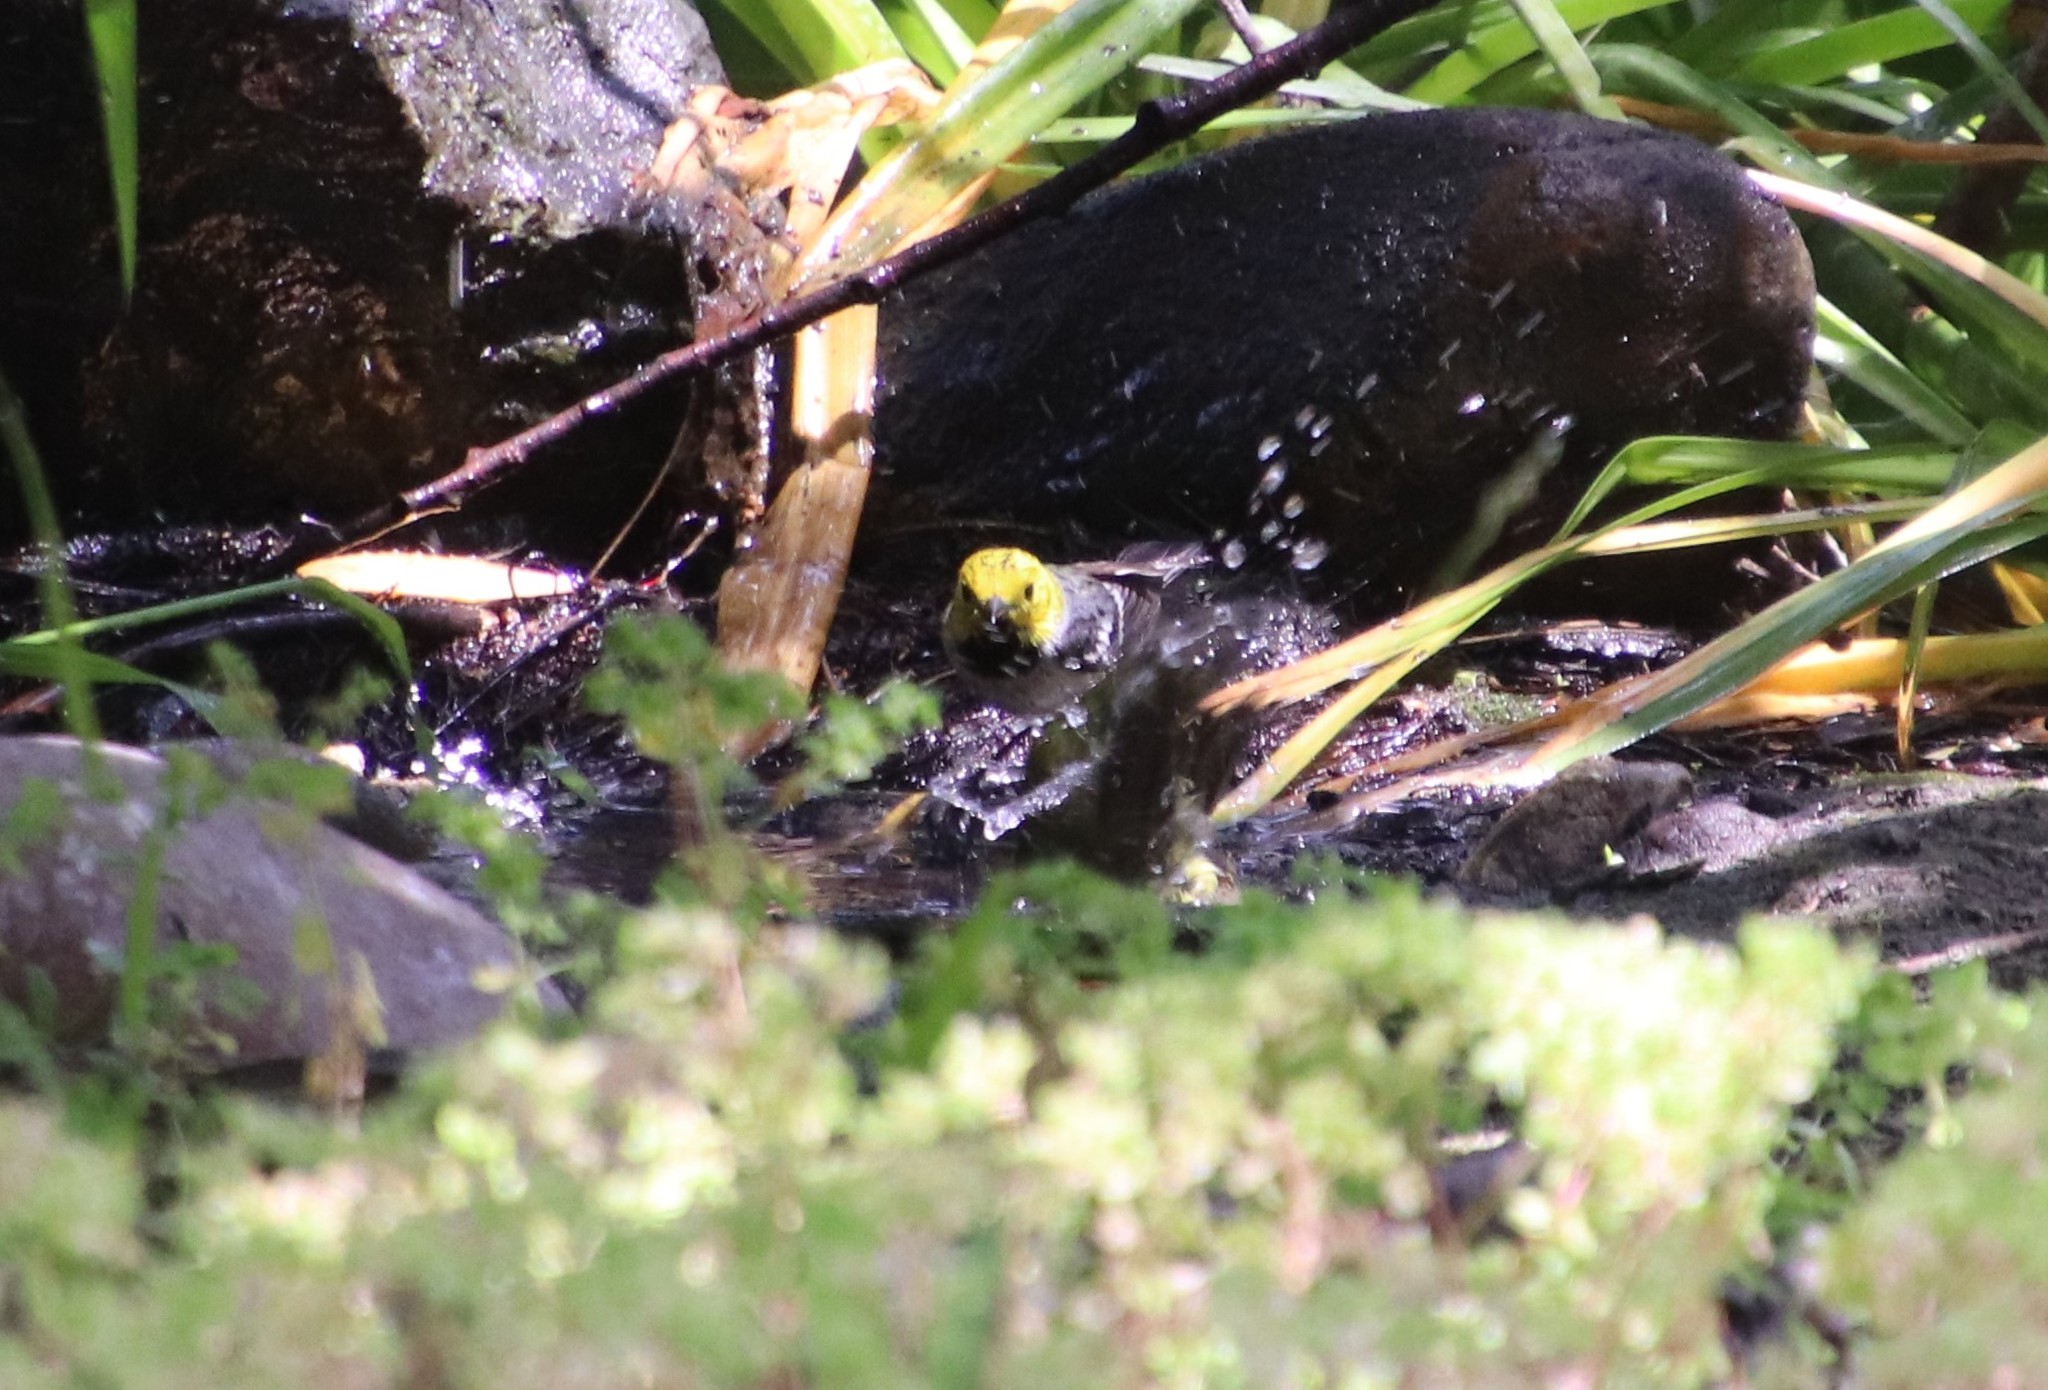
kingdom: Animalia
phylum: Chordata
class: Aves
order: Passeriformes
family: Parulidae
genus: Setophaga
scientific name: Setophaga occidentalis
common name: Hermit warbler
